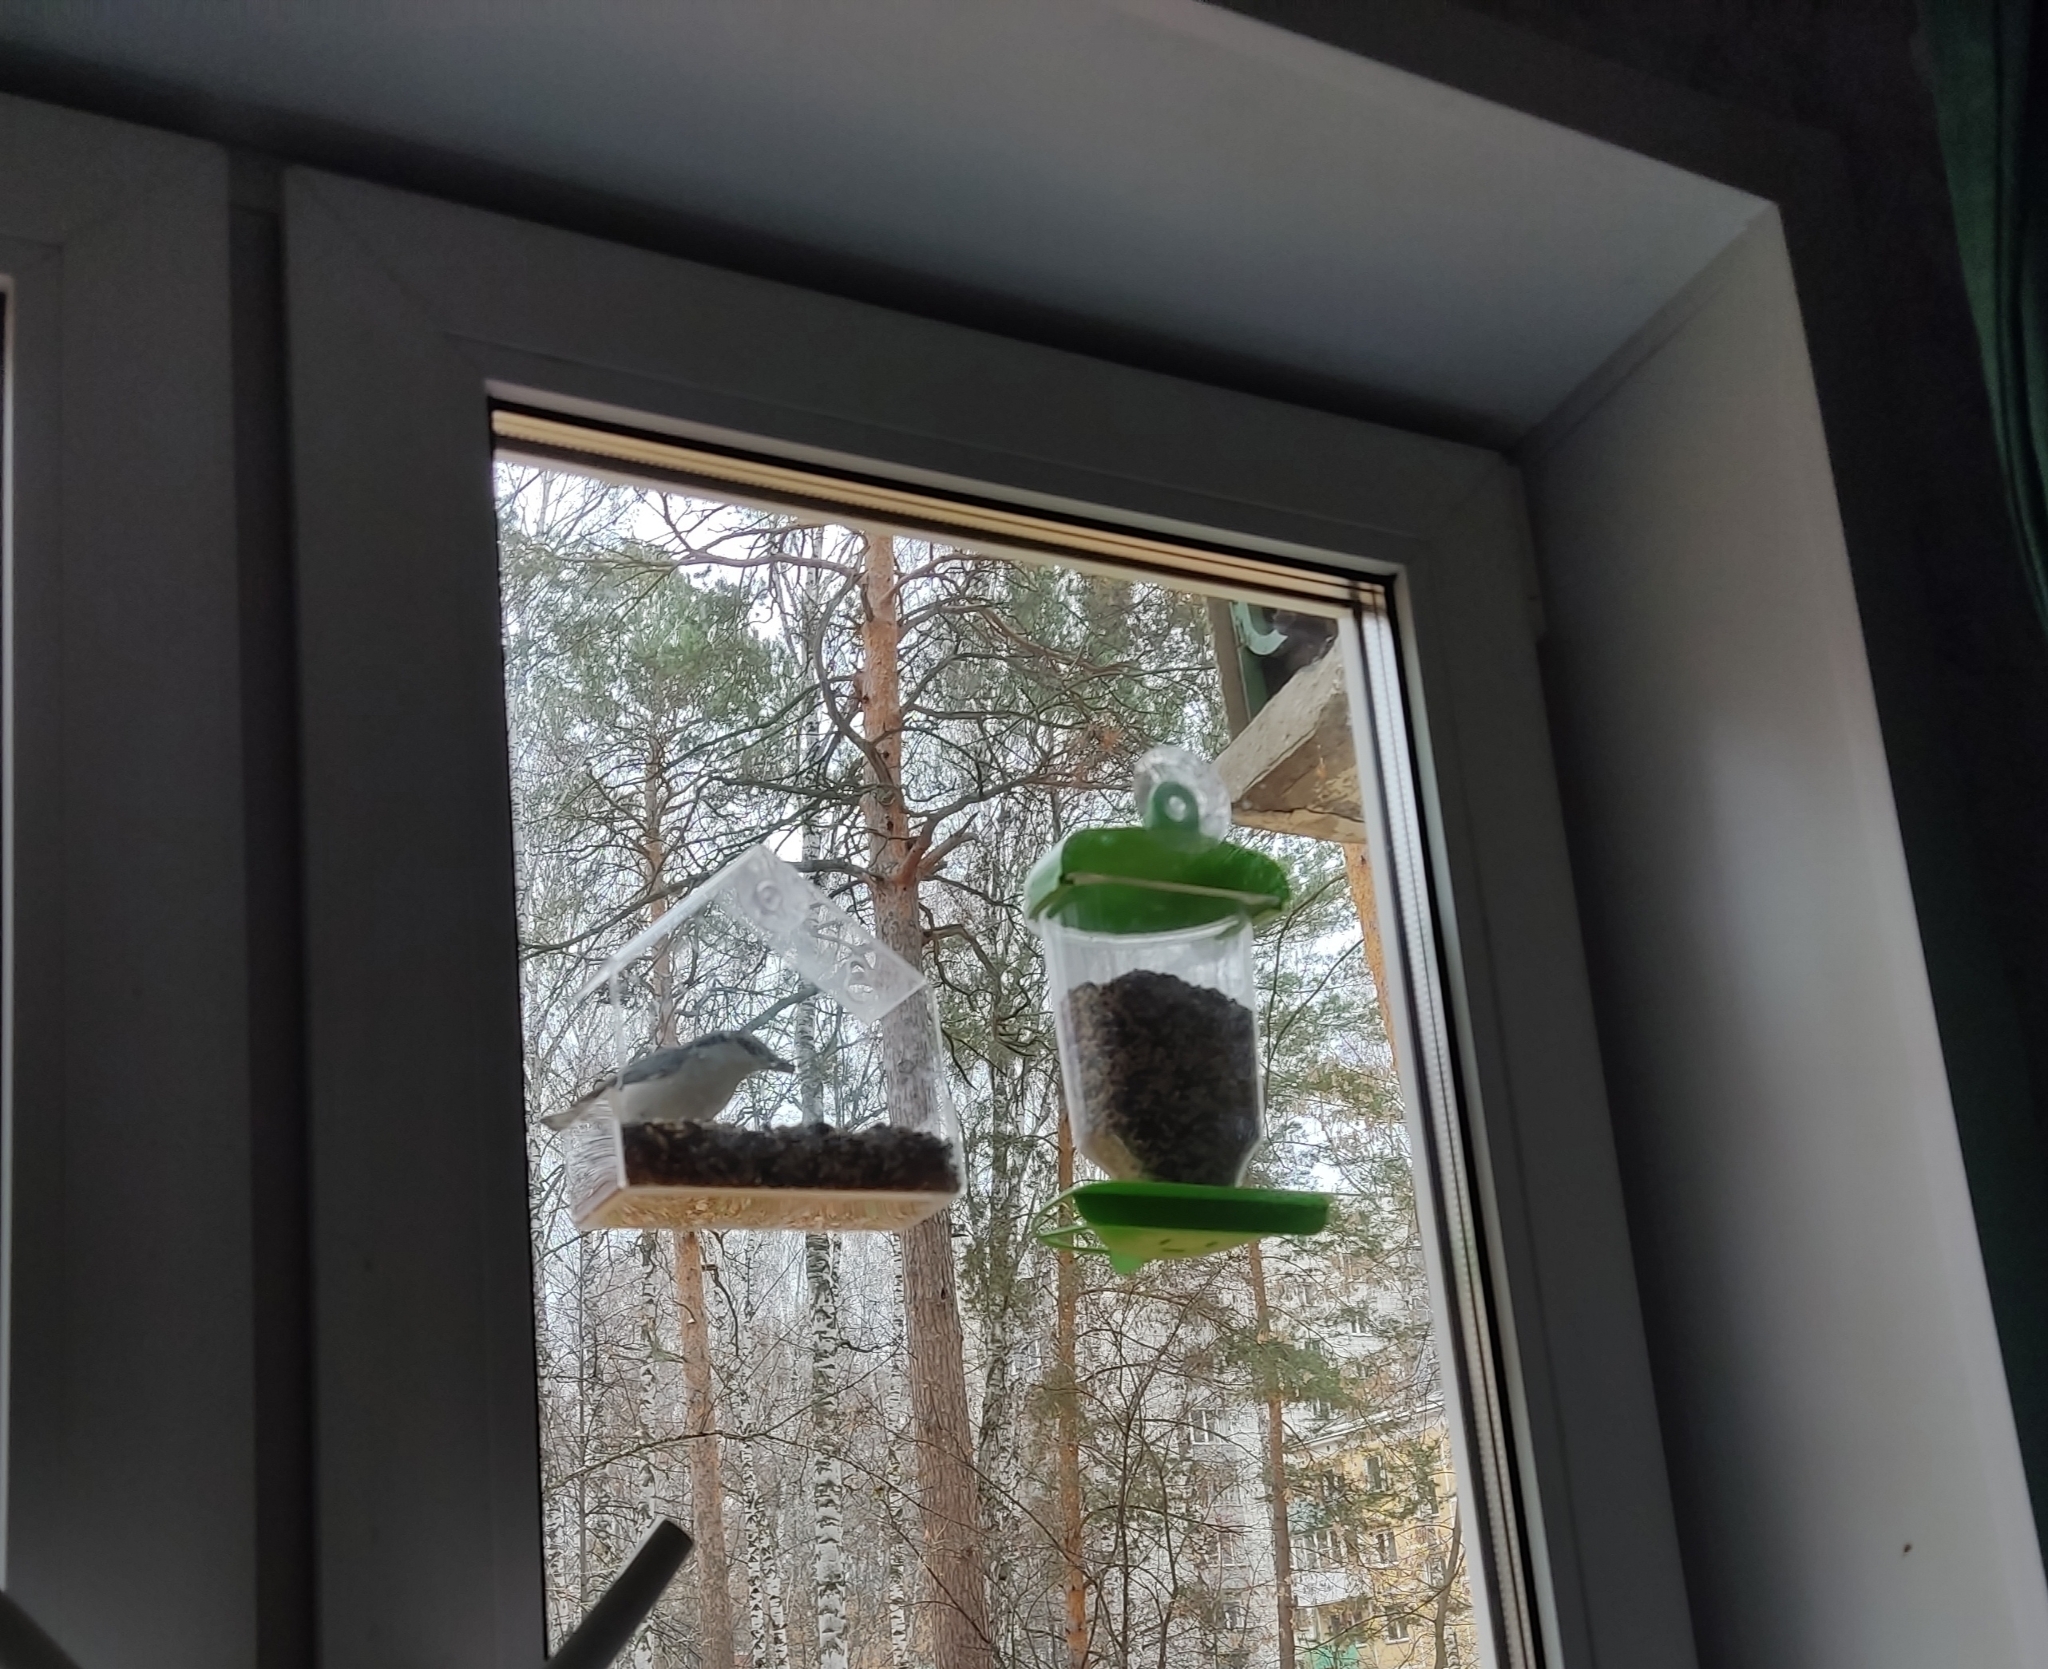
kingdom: Animalia
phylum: Chordata
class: Aves
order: Passeriformes
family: Sittidae
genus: Sitta
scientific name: Sitta europaea
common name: Eurasian nuthatch
